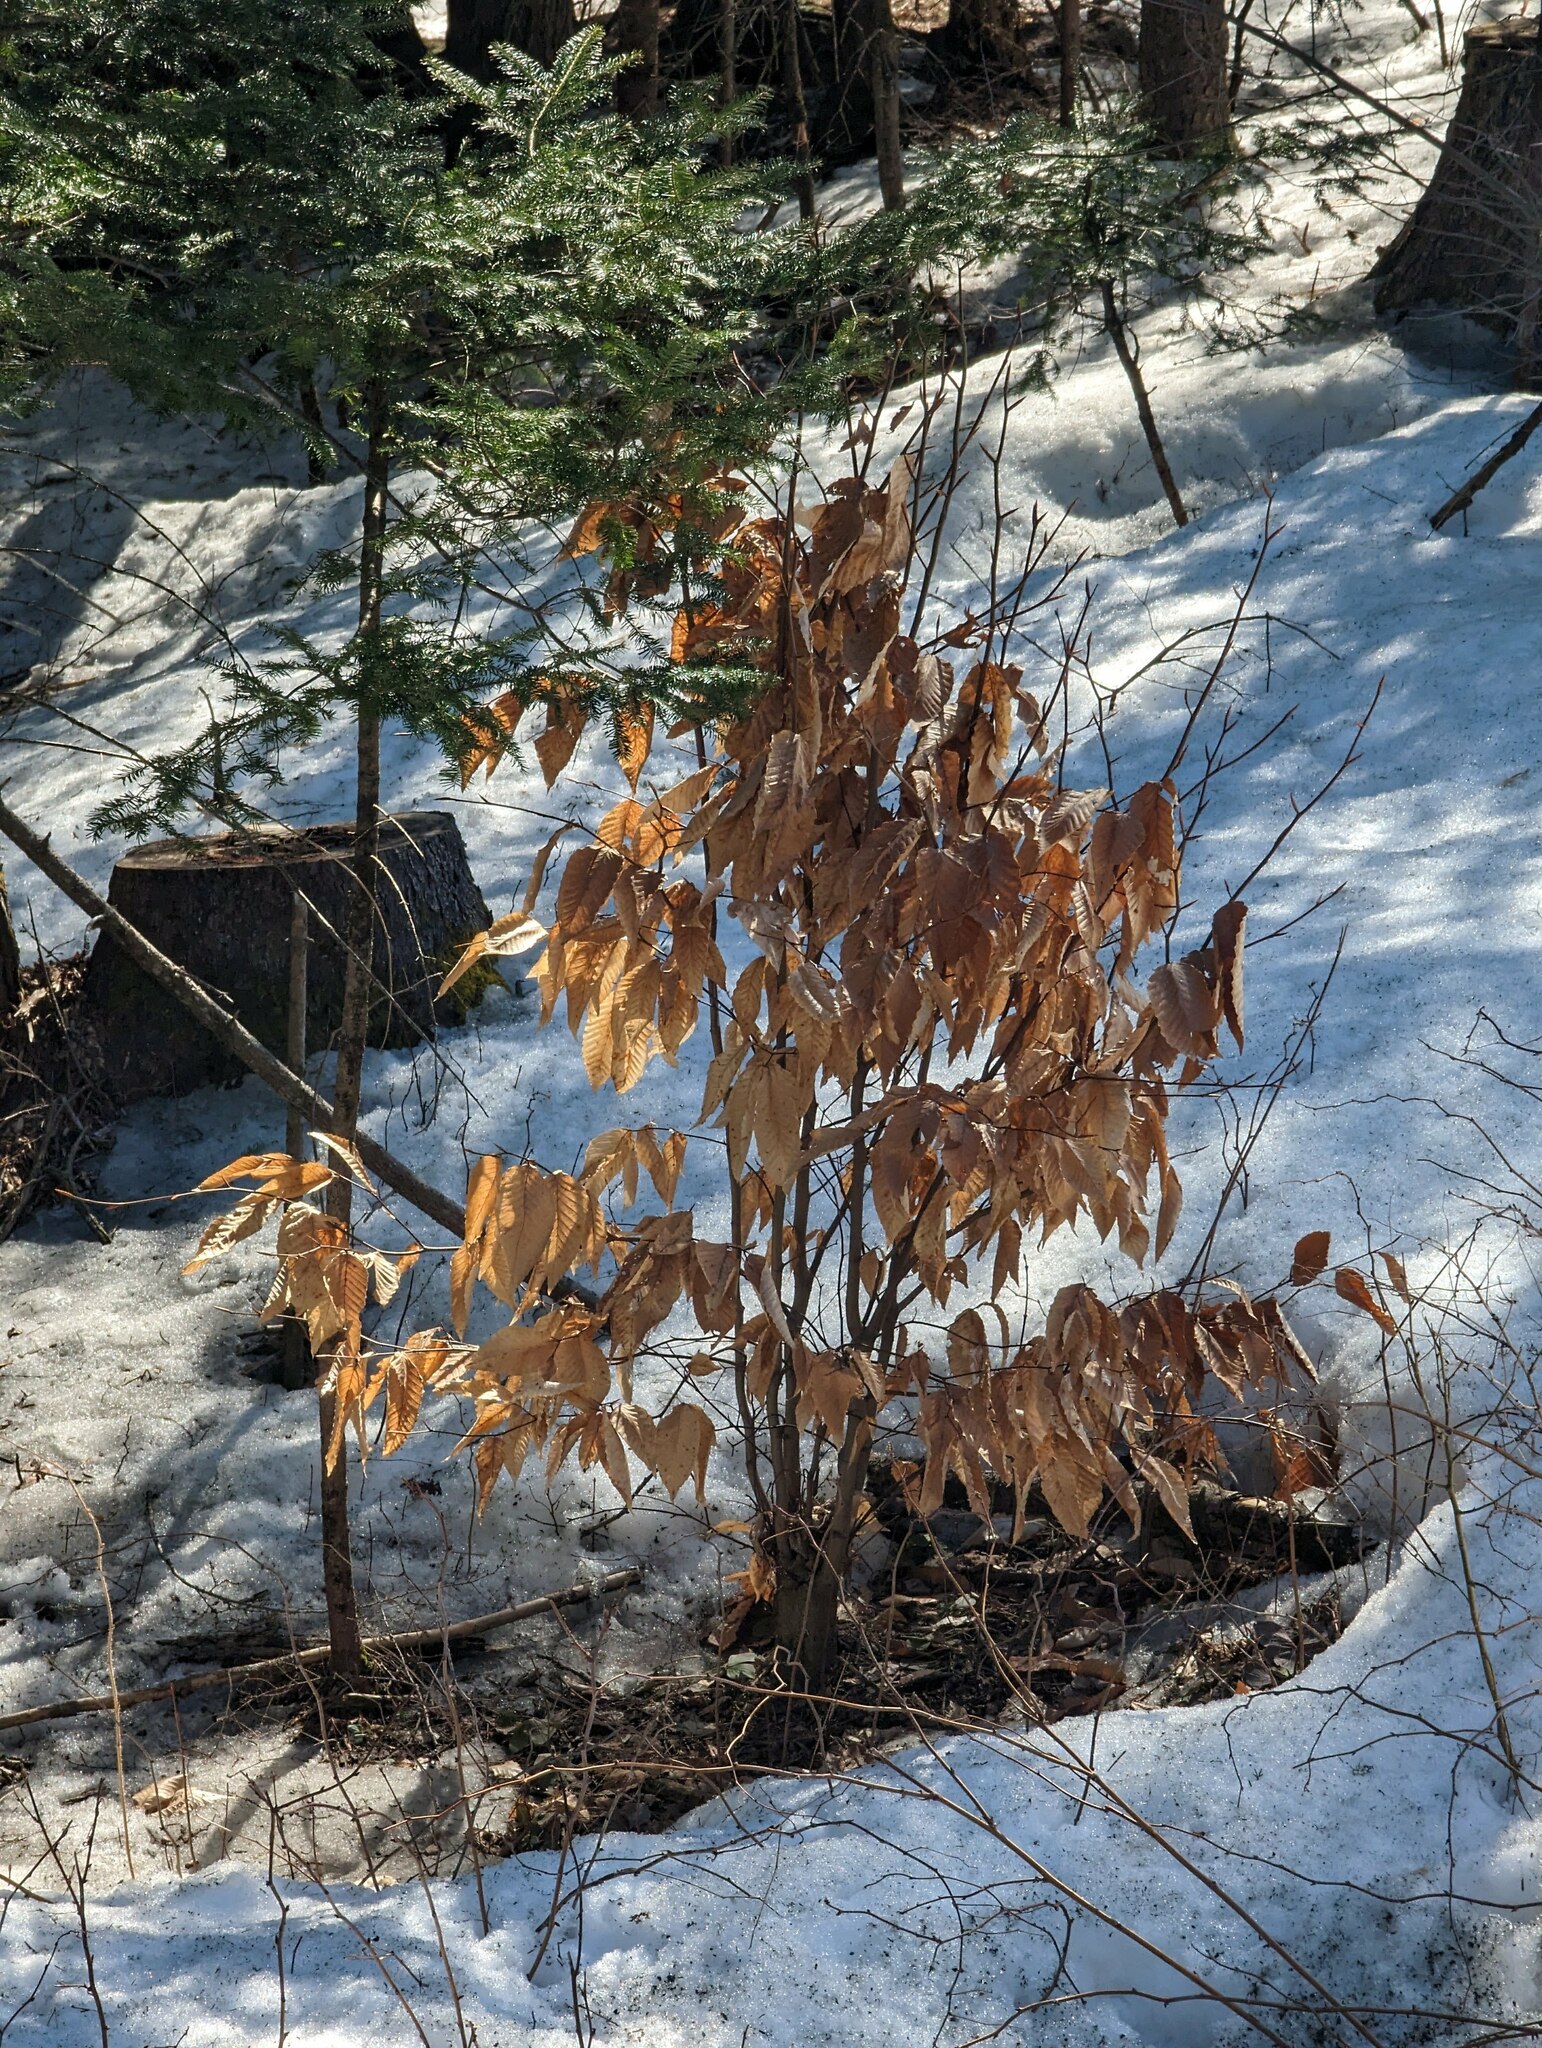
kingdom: Plantae
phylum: Tracheophyta
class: Magnoliopsida
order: Fagales
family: Fagaceae
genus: Fagus
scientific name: Fagus grandifolia
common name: American beech
